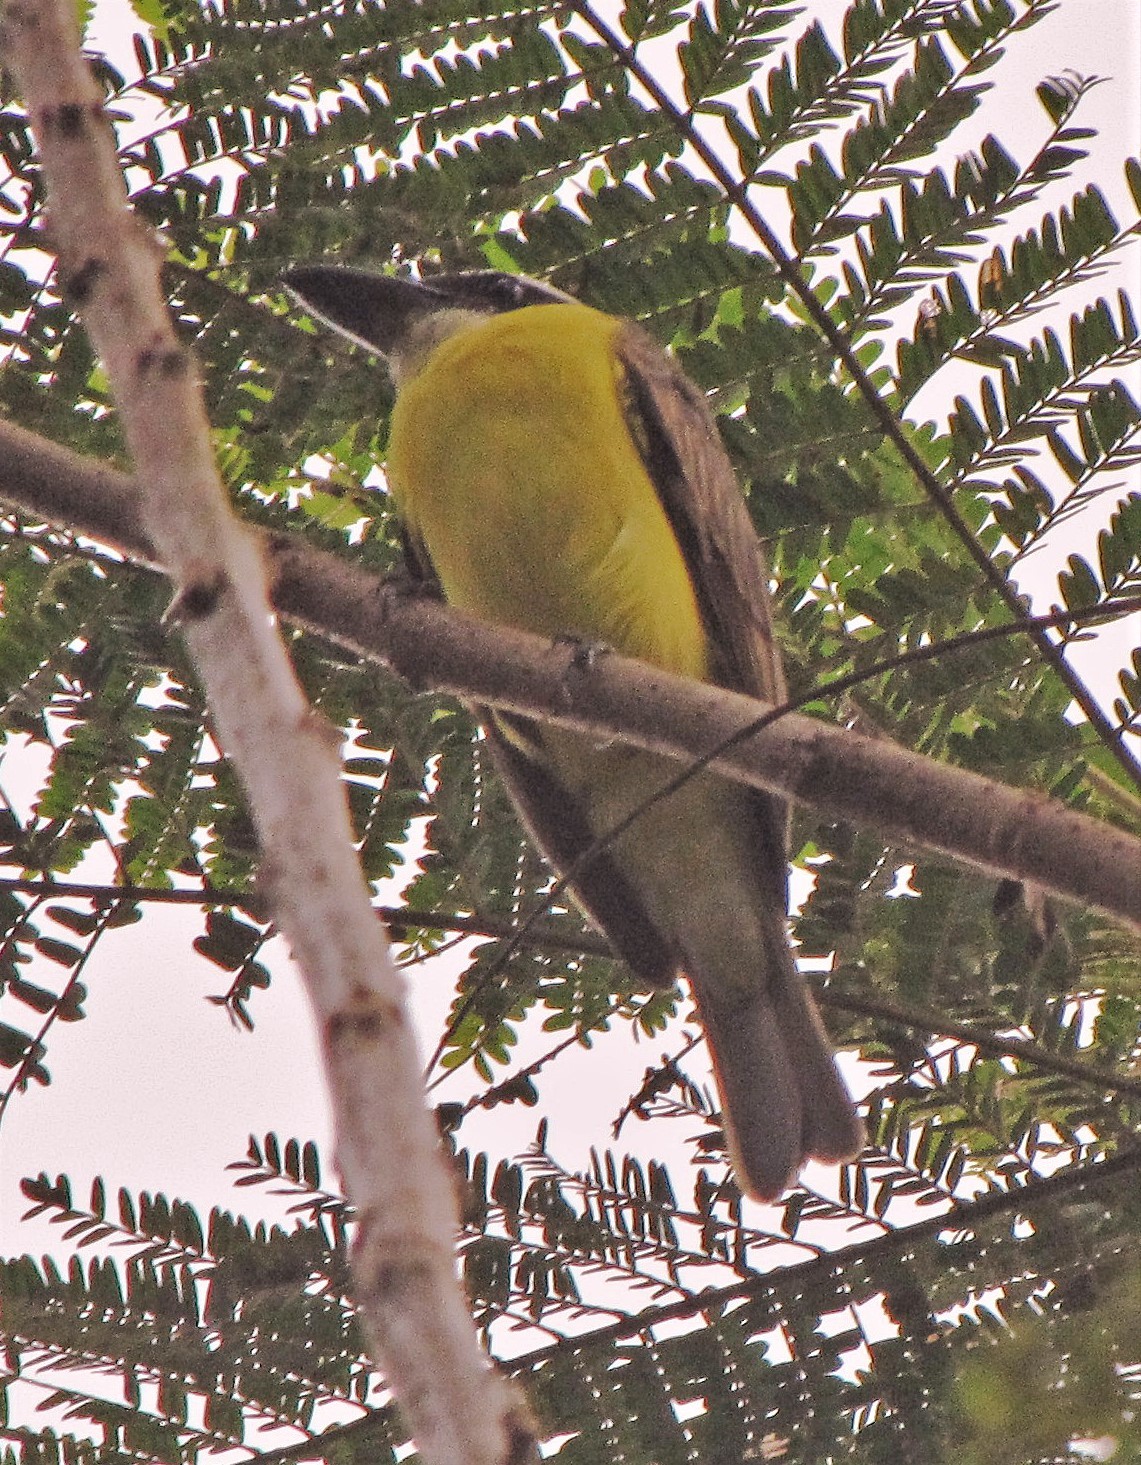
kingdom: Animalia
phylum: Chordata
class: Aves
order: Passeriformes
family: Tyrannidae
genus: Megarynchus
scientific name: Megarynchus pitangua
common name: Boat-billed flycatcher
